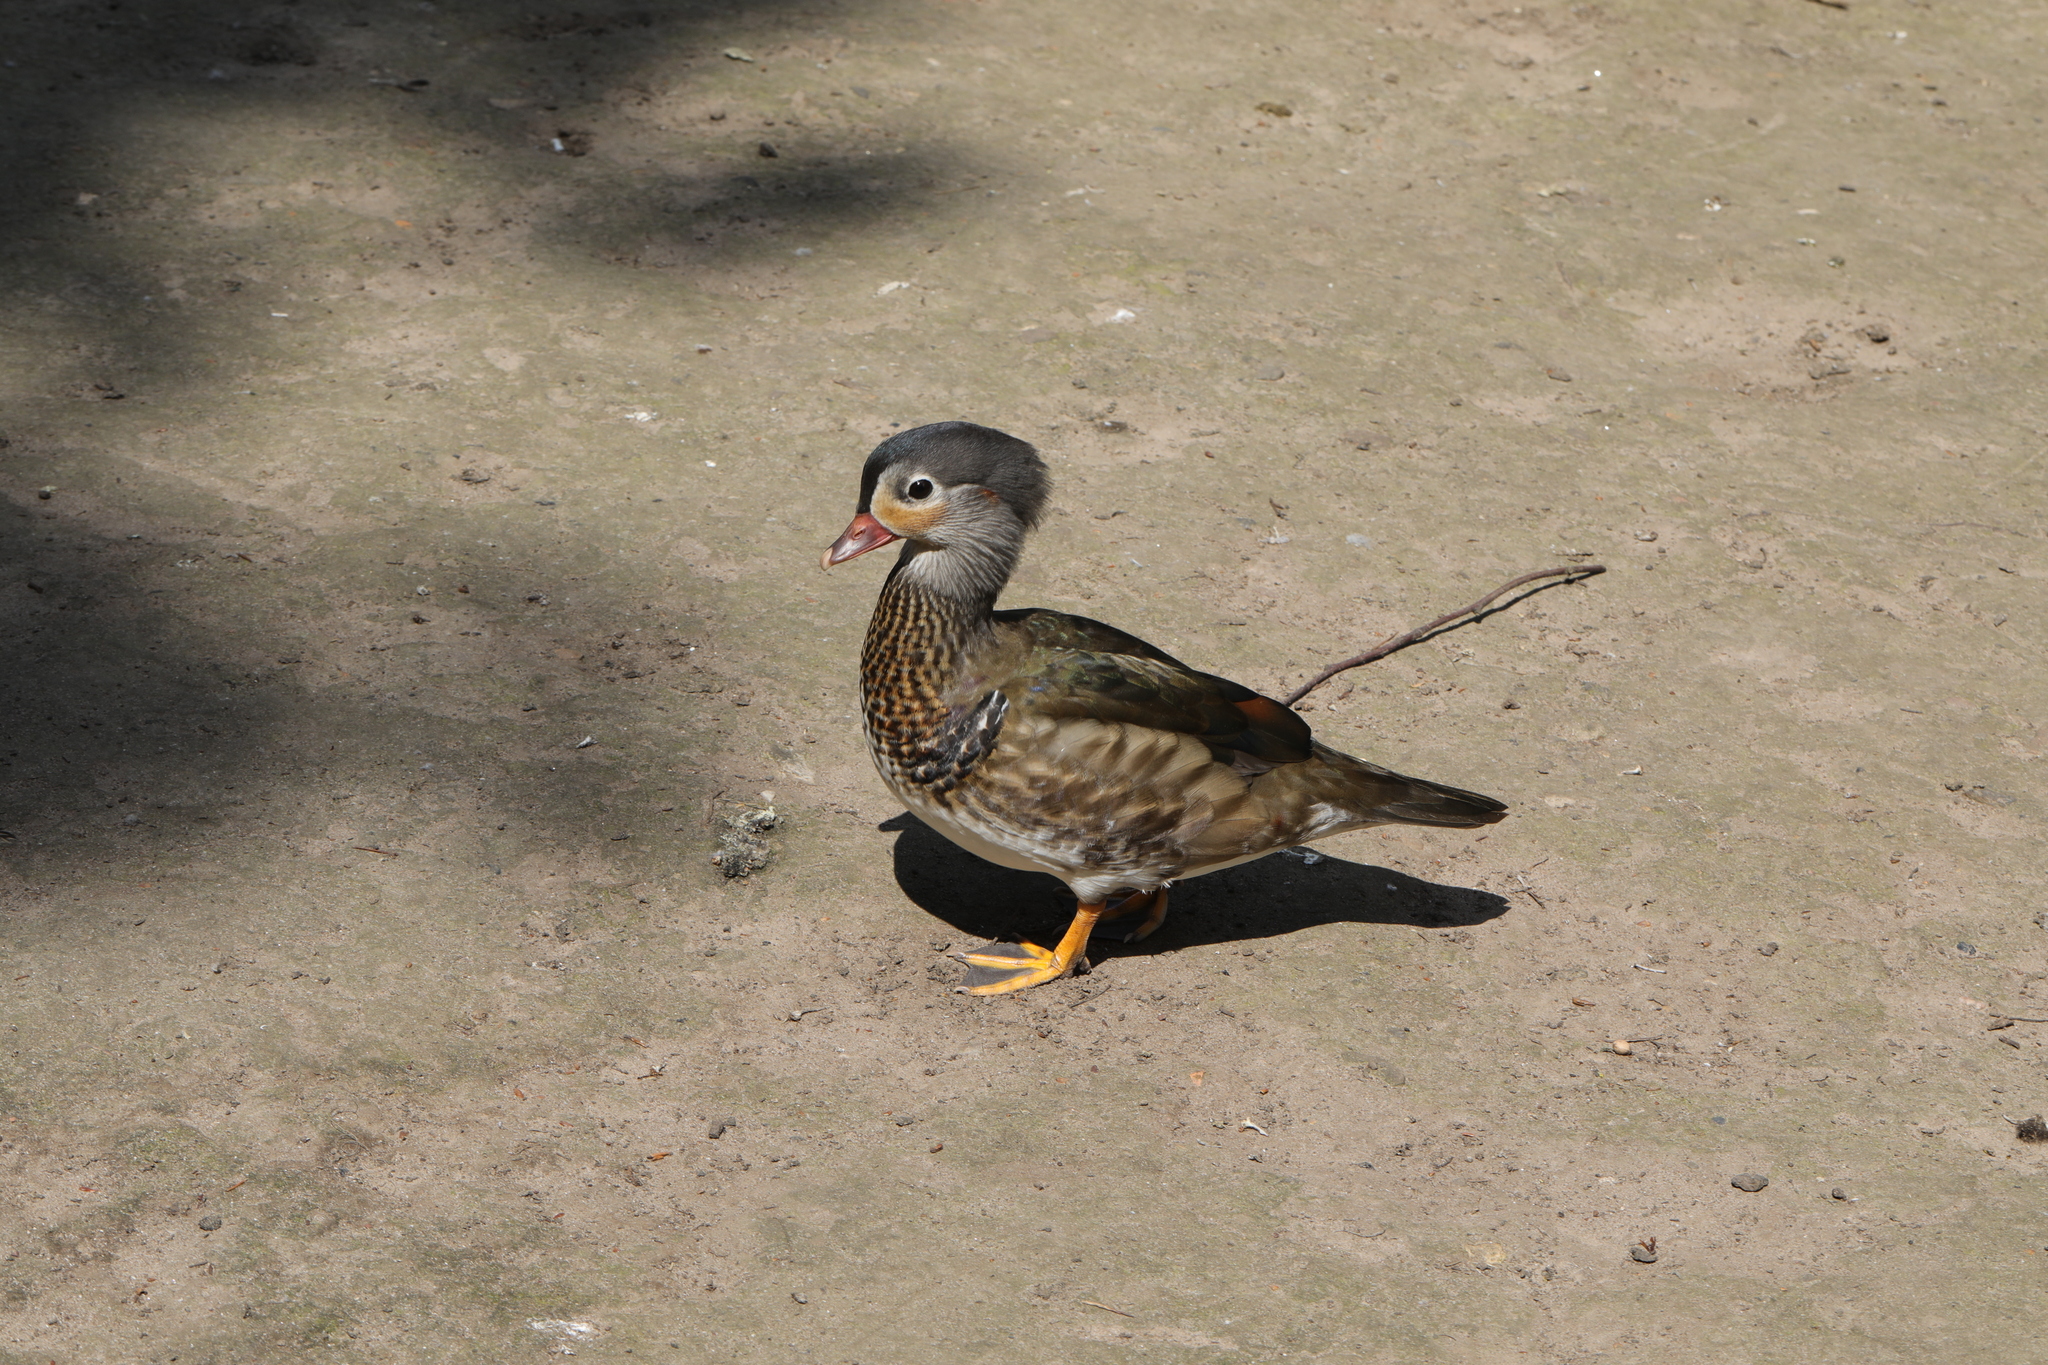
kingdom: Animalia
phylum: Chordata
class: Aves
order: Anseriformes
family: Anatidae
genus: Aix
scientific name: Aix galericulata
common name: Mandarin duck
